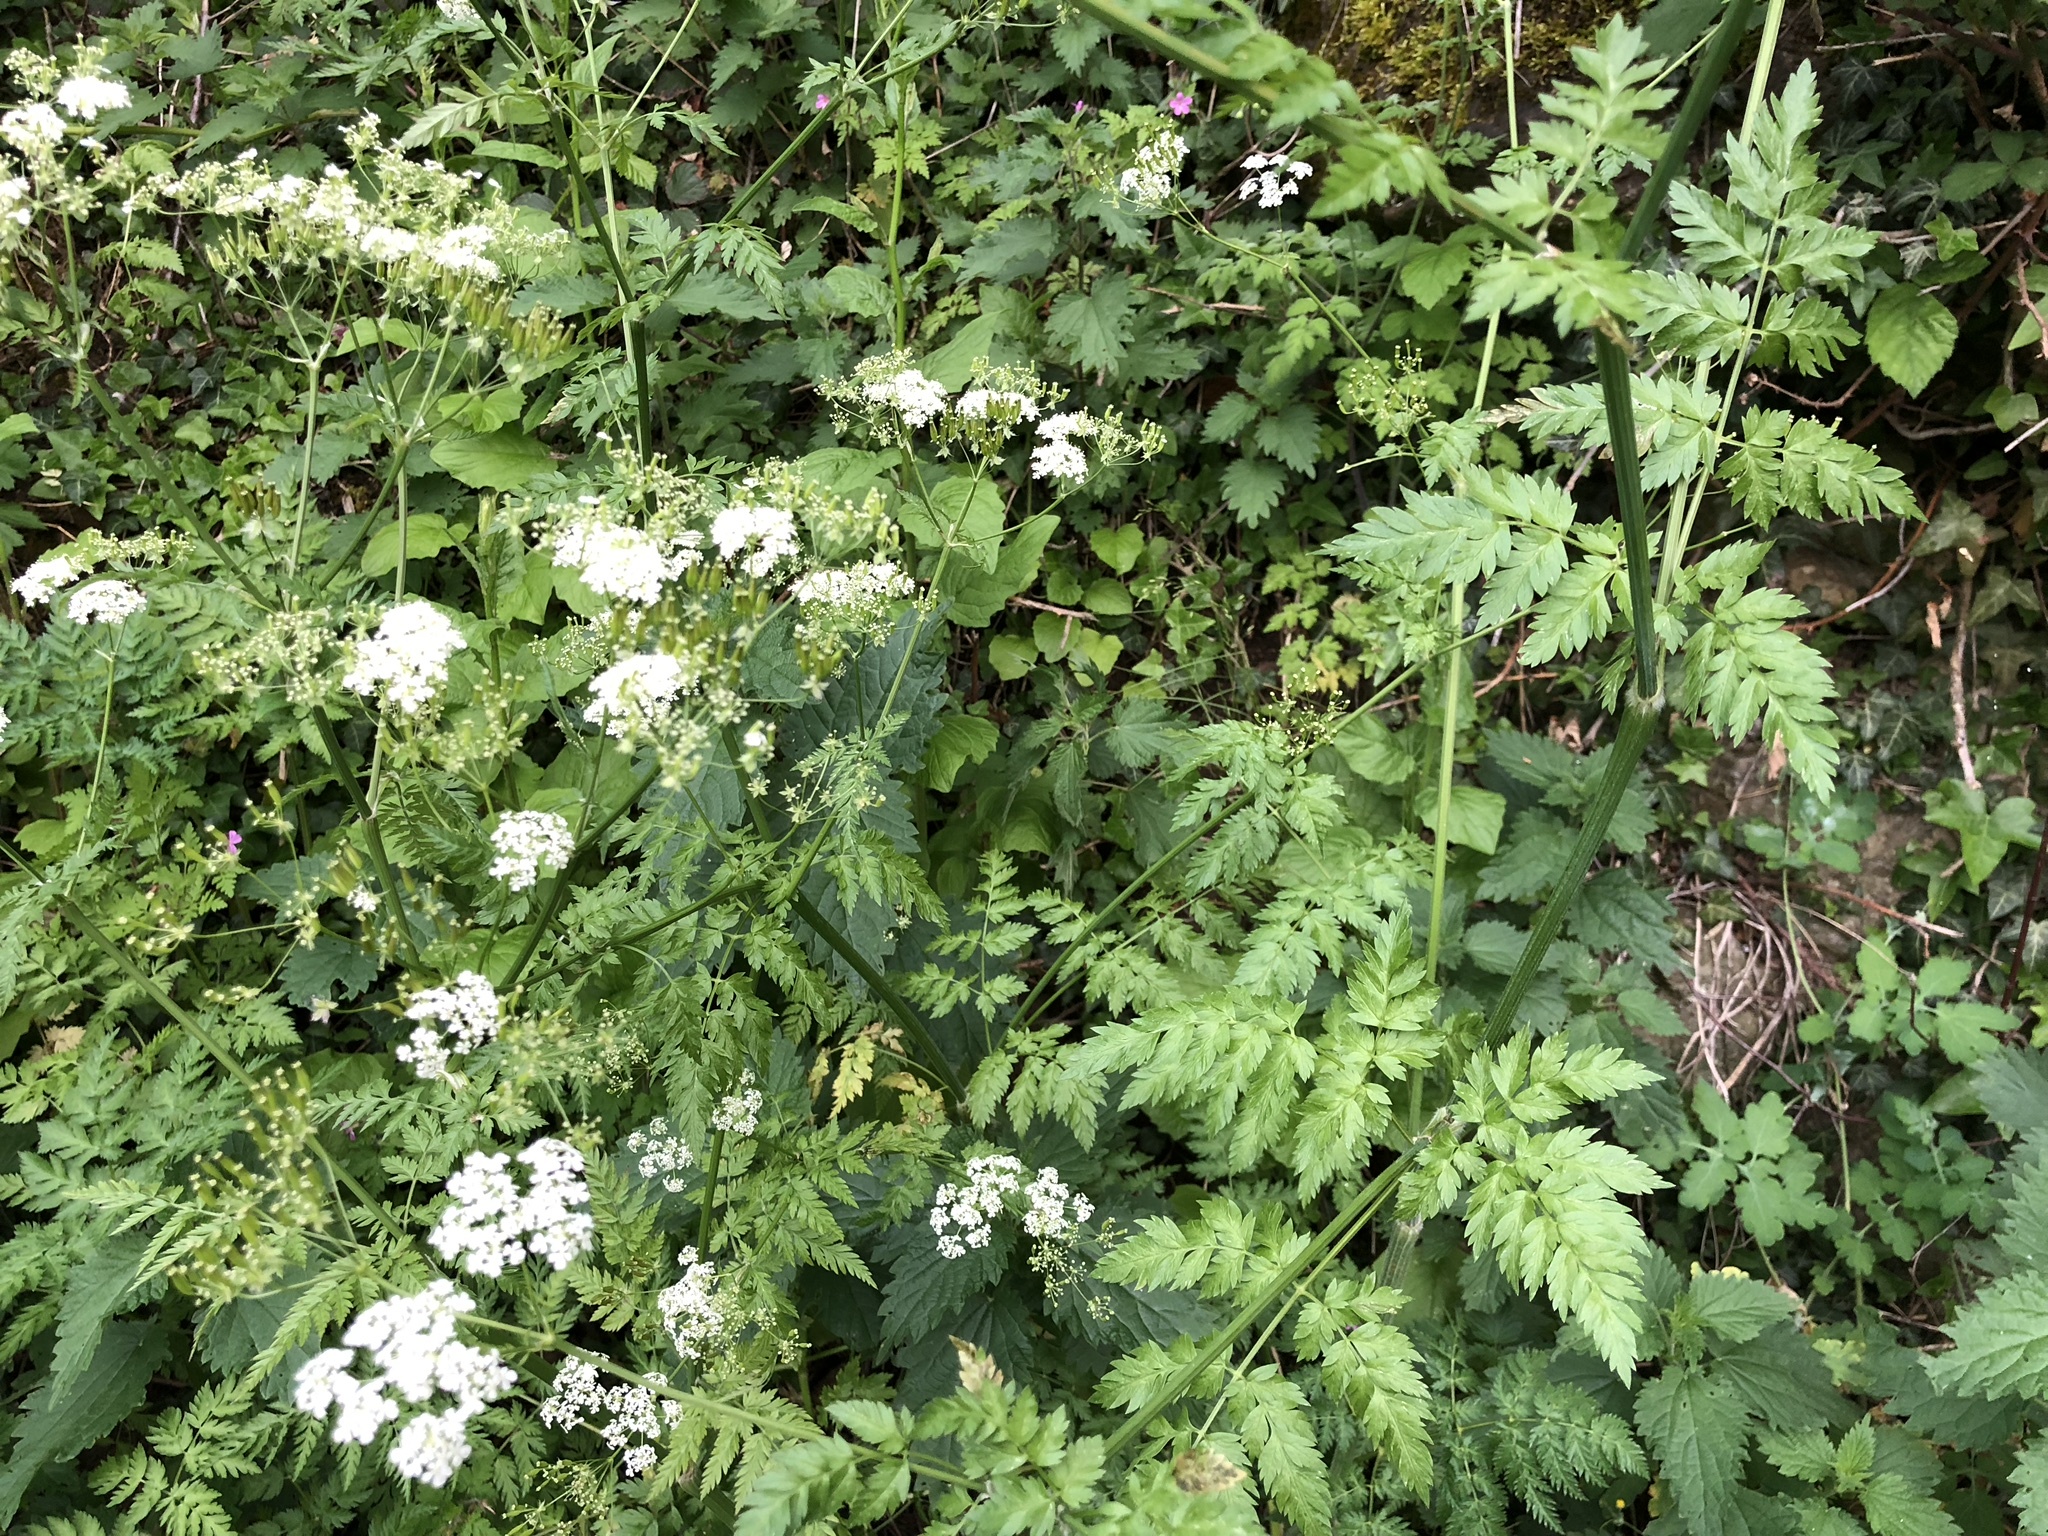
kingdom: Plantae
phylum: Tracheophyta
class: Magnoliopsida
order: Apiales
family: Apiaceae
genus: Anthriscus
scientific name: Anthriscus sylvestris
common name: Cow parsley
